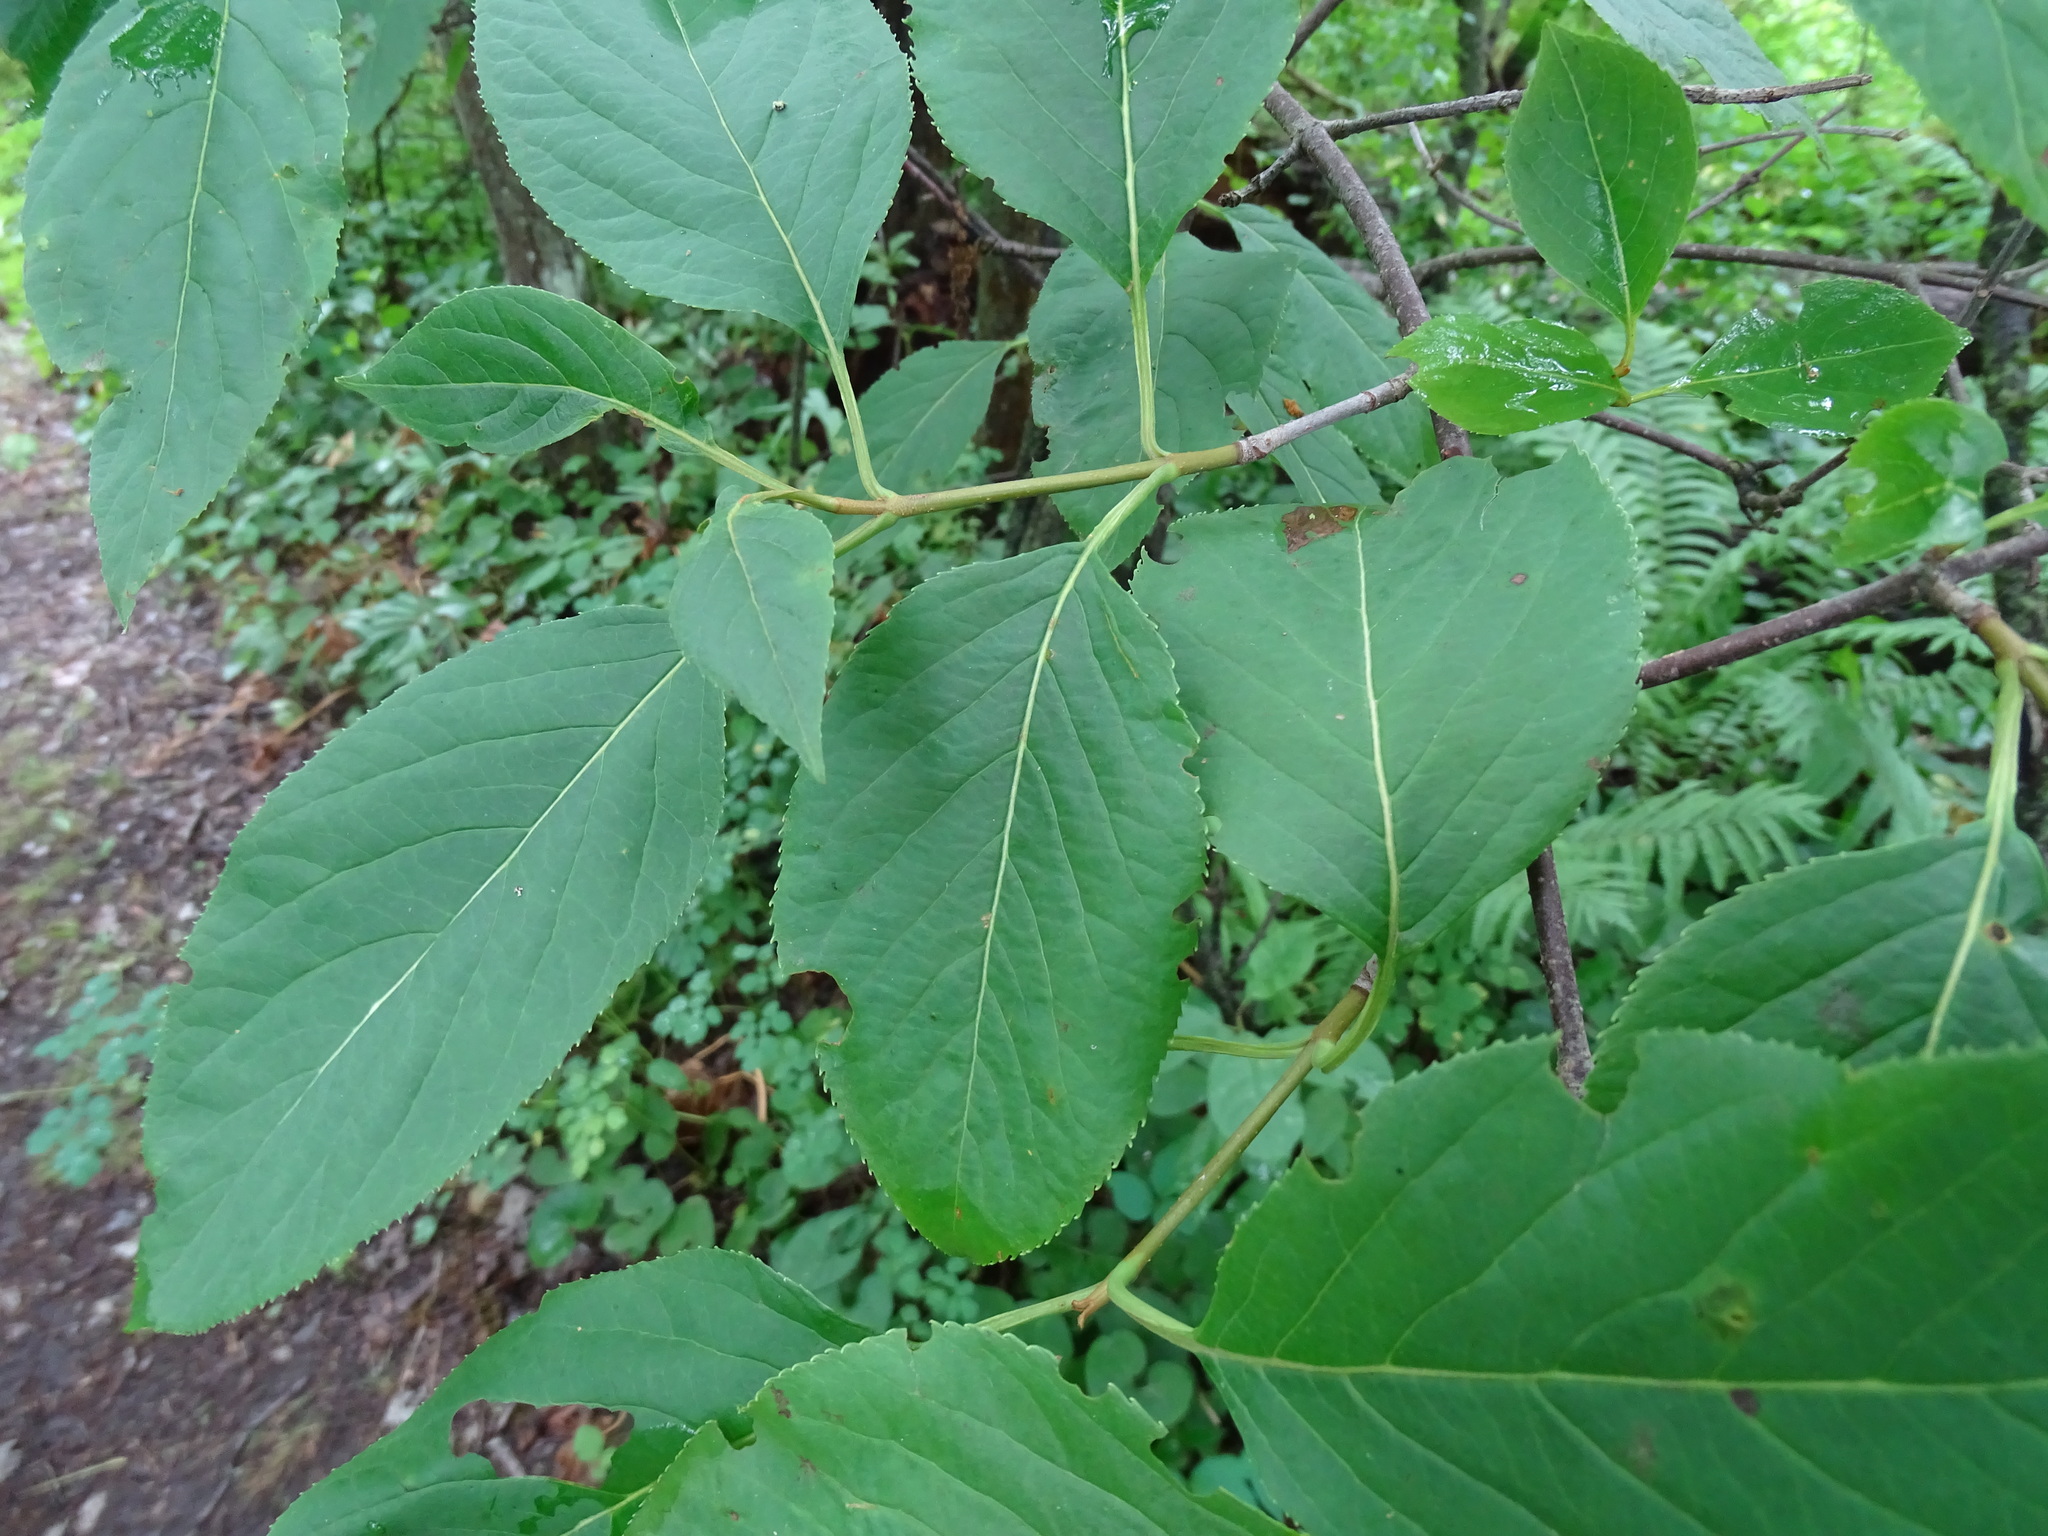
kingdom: Plantae
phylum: Tracheophyta
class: Magnoliopsida
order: Dipsacales
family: Viburnaceae
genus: Viburnum
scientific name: Viburnum lentago
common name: Black haw
